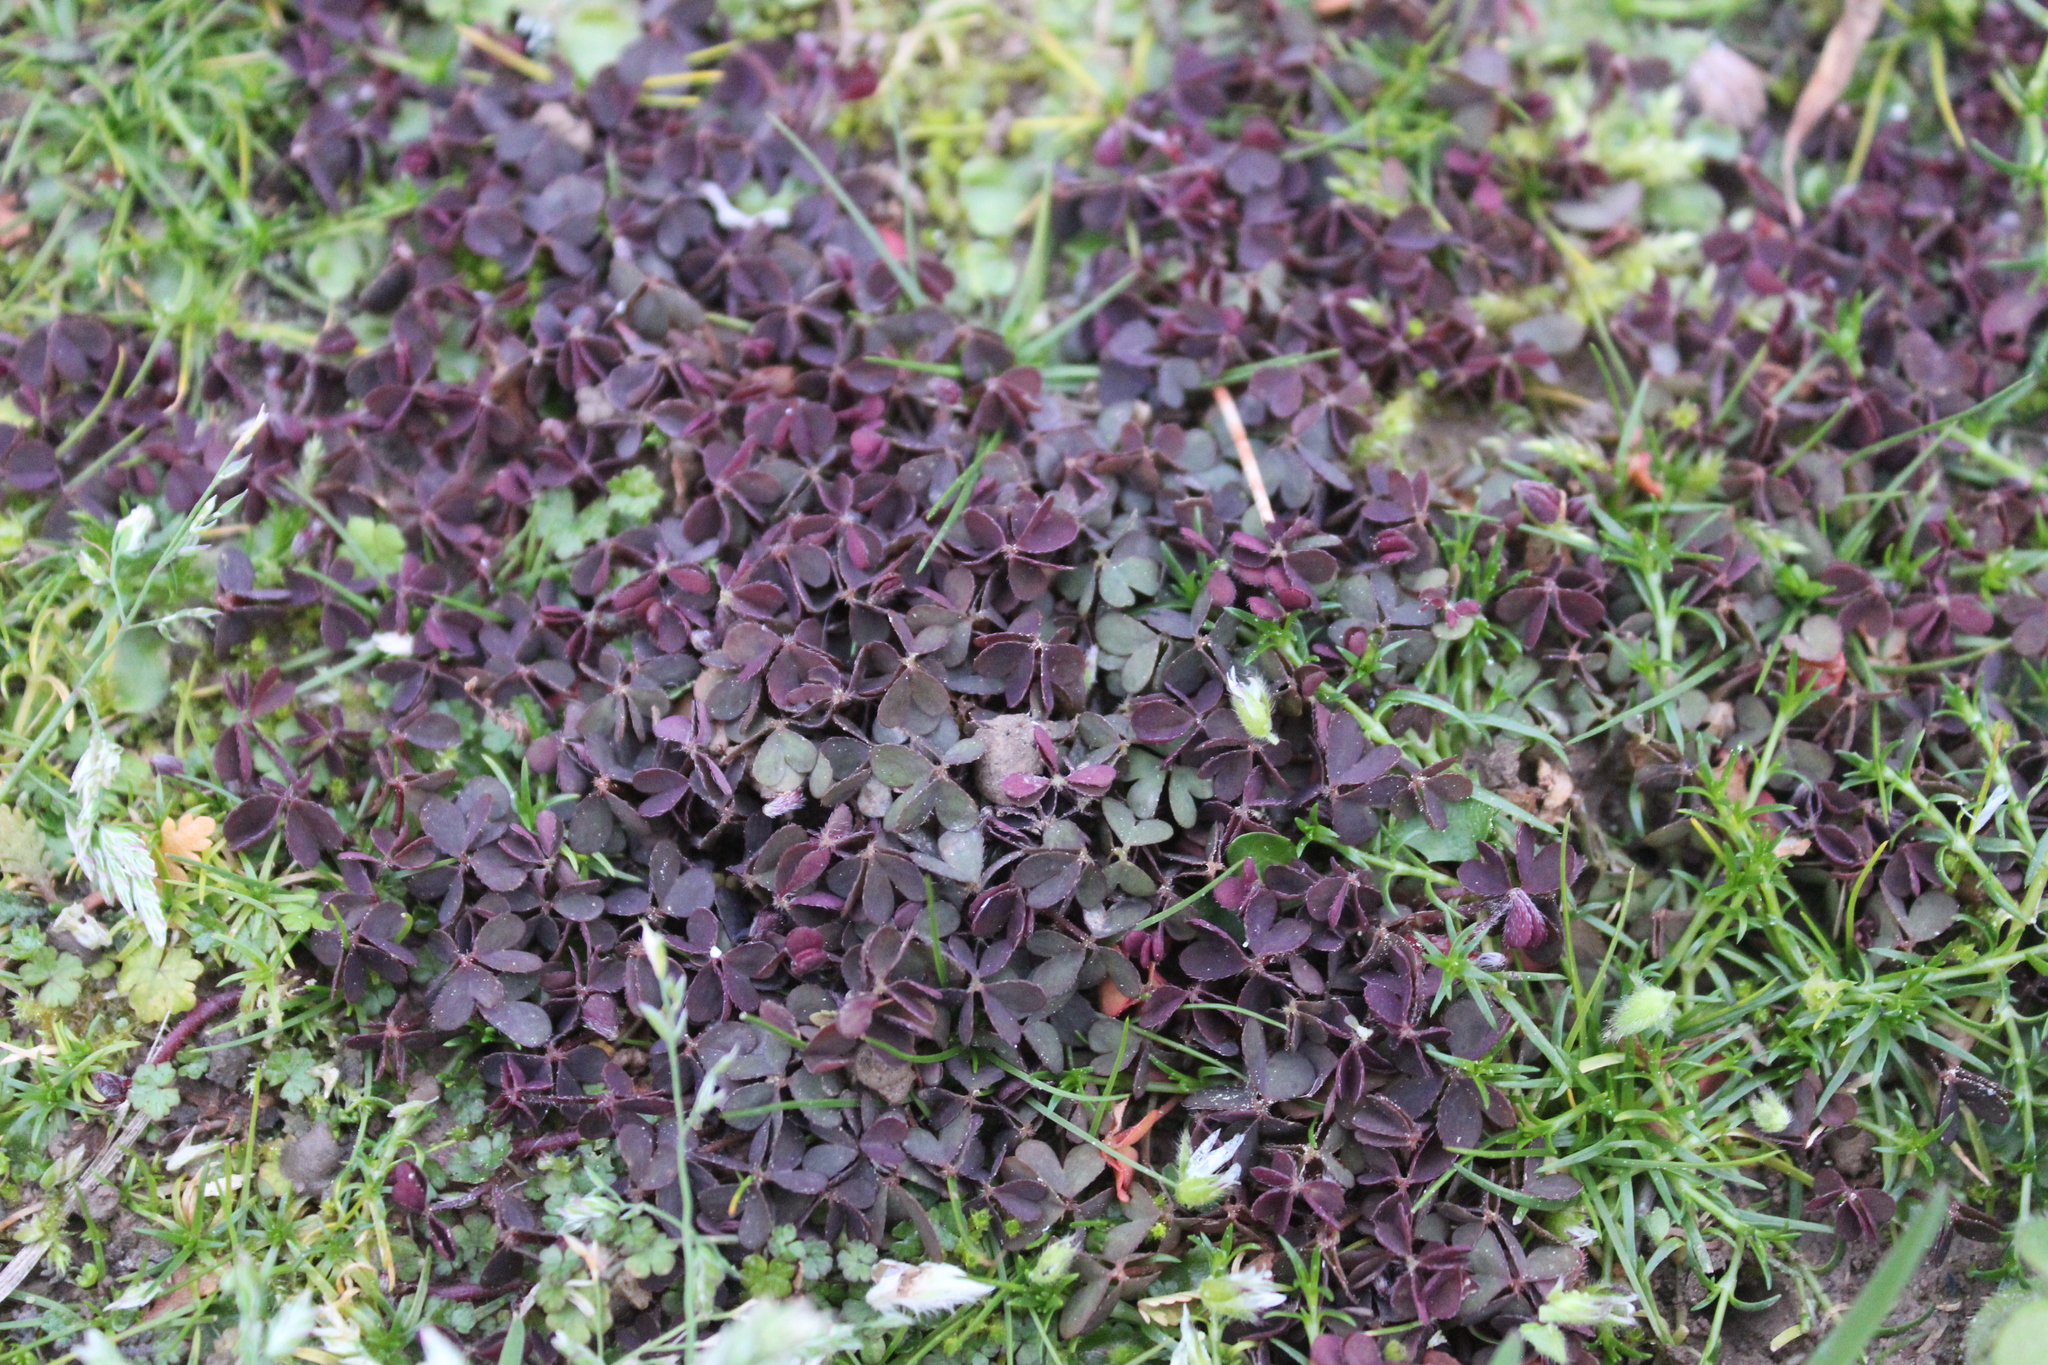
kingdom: Plantae
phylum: Tracheophyta
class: Magnoliopsida
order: Oxalidales
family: Oxalidaceae
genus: Oxalis
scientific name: Oxalis corniculata
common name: Procumbent yellow-sorrel
